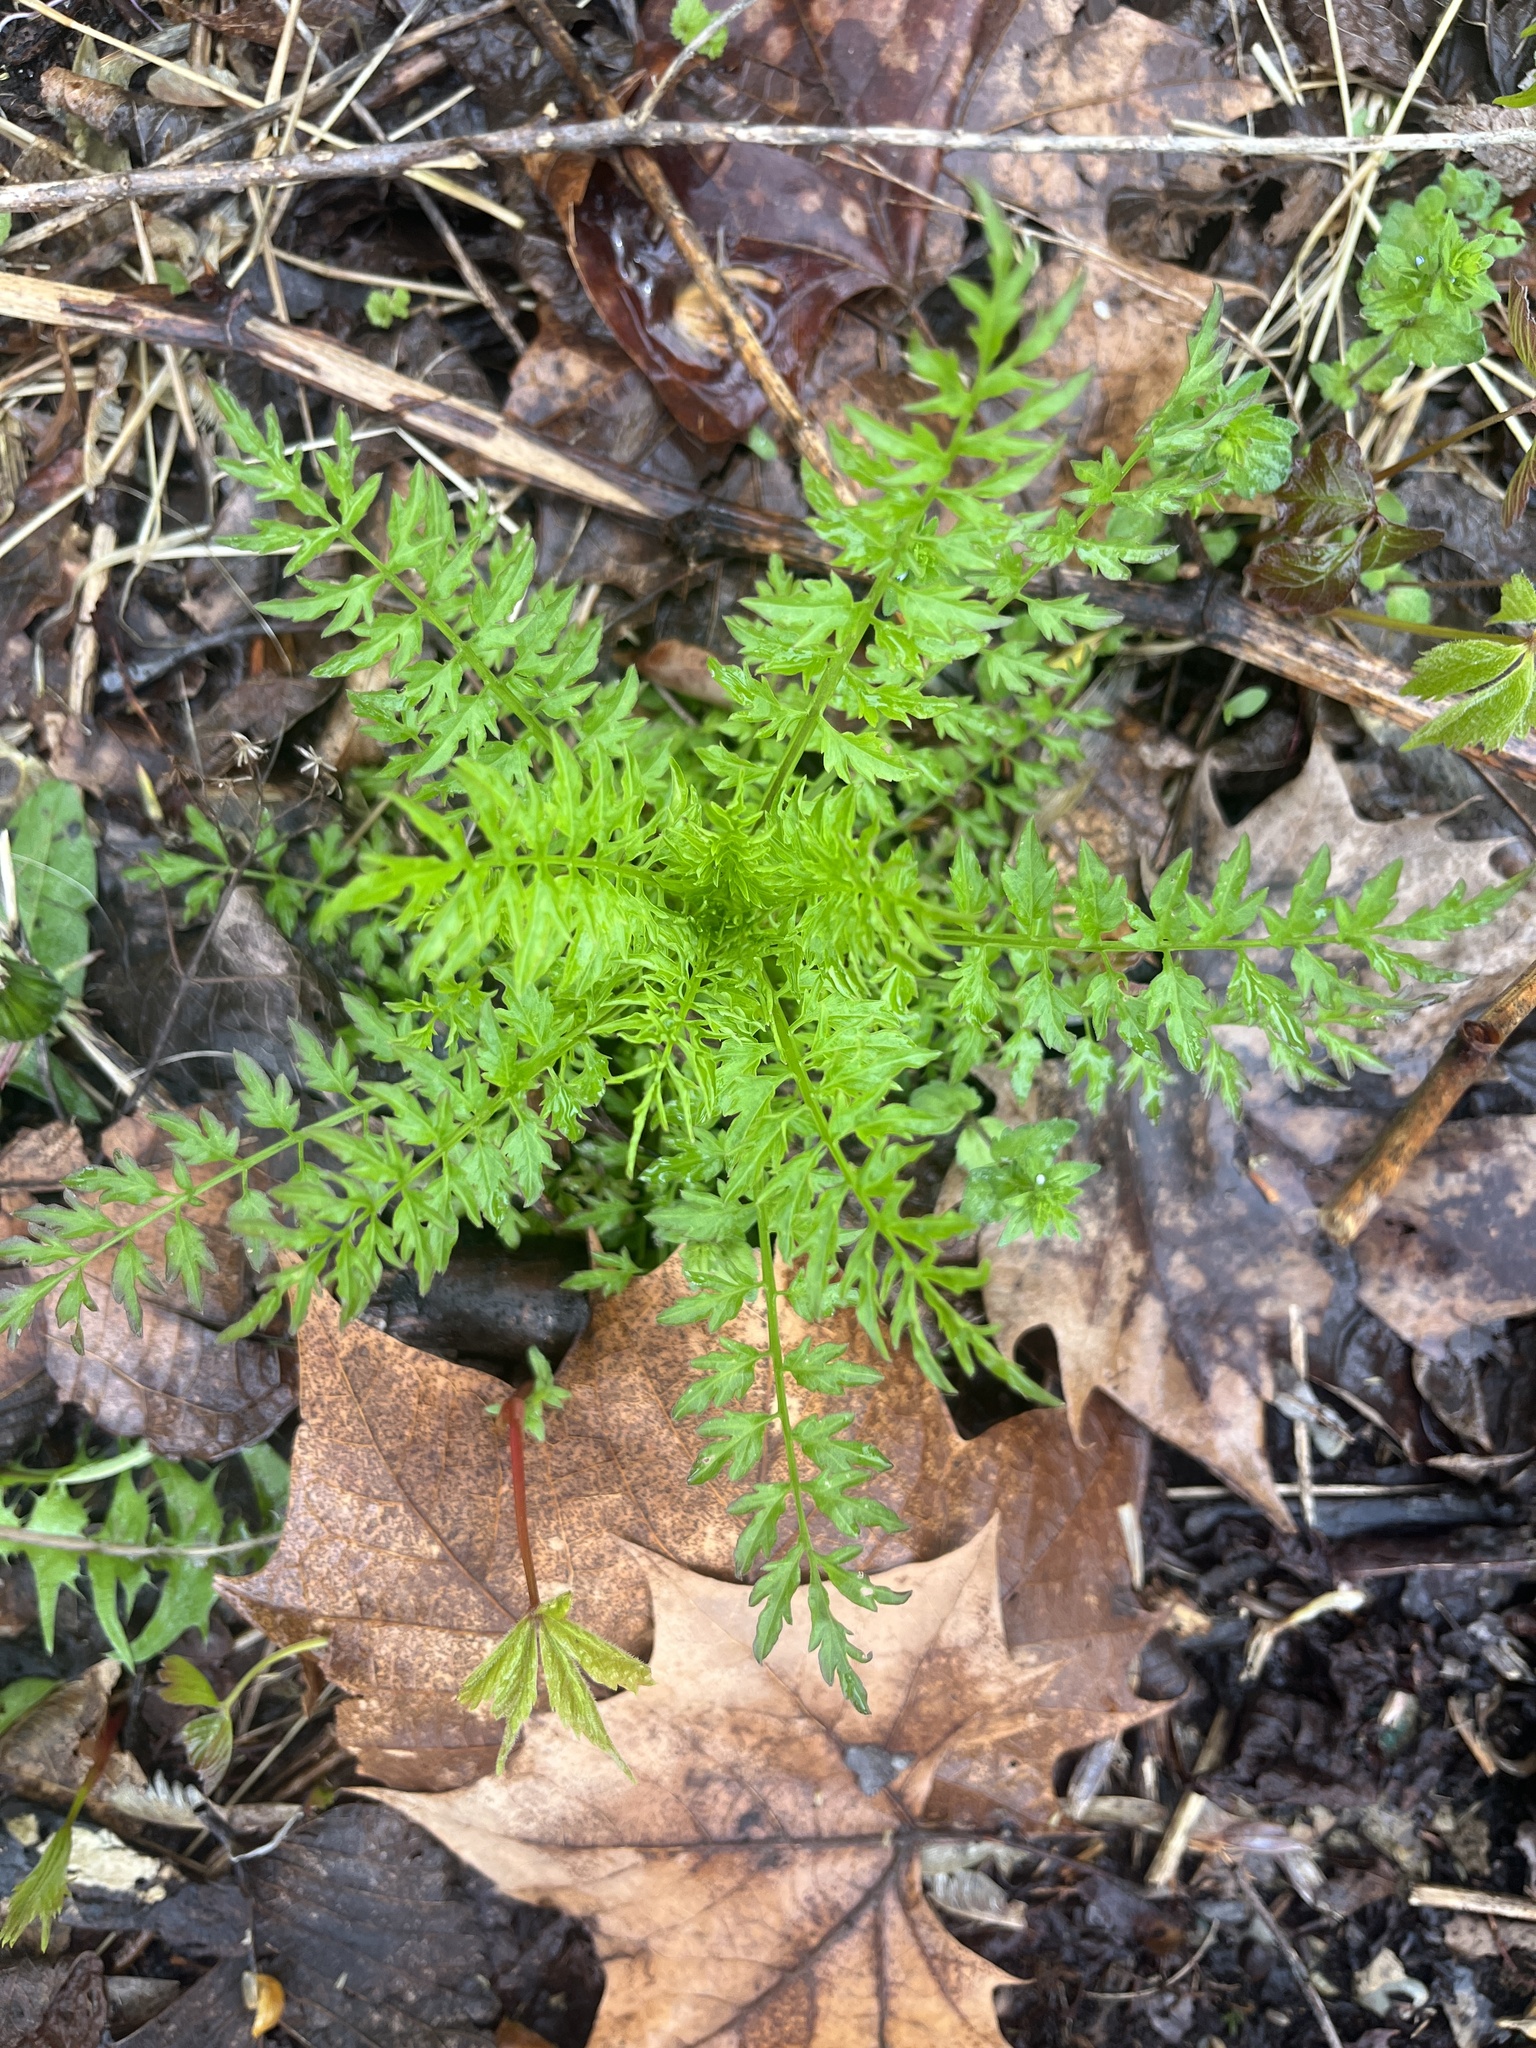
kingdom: Plantae
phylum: Tracheophyta
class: Magnoliopsida
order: Brassicales
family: Brassicaceae
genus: Cardamine
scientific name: Cardamine impatiens
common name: Narrow-leaved bitter-cress
